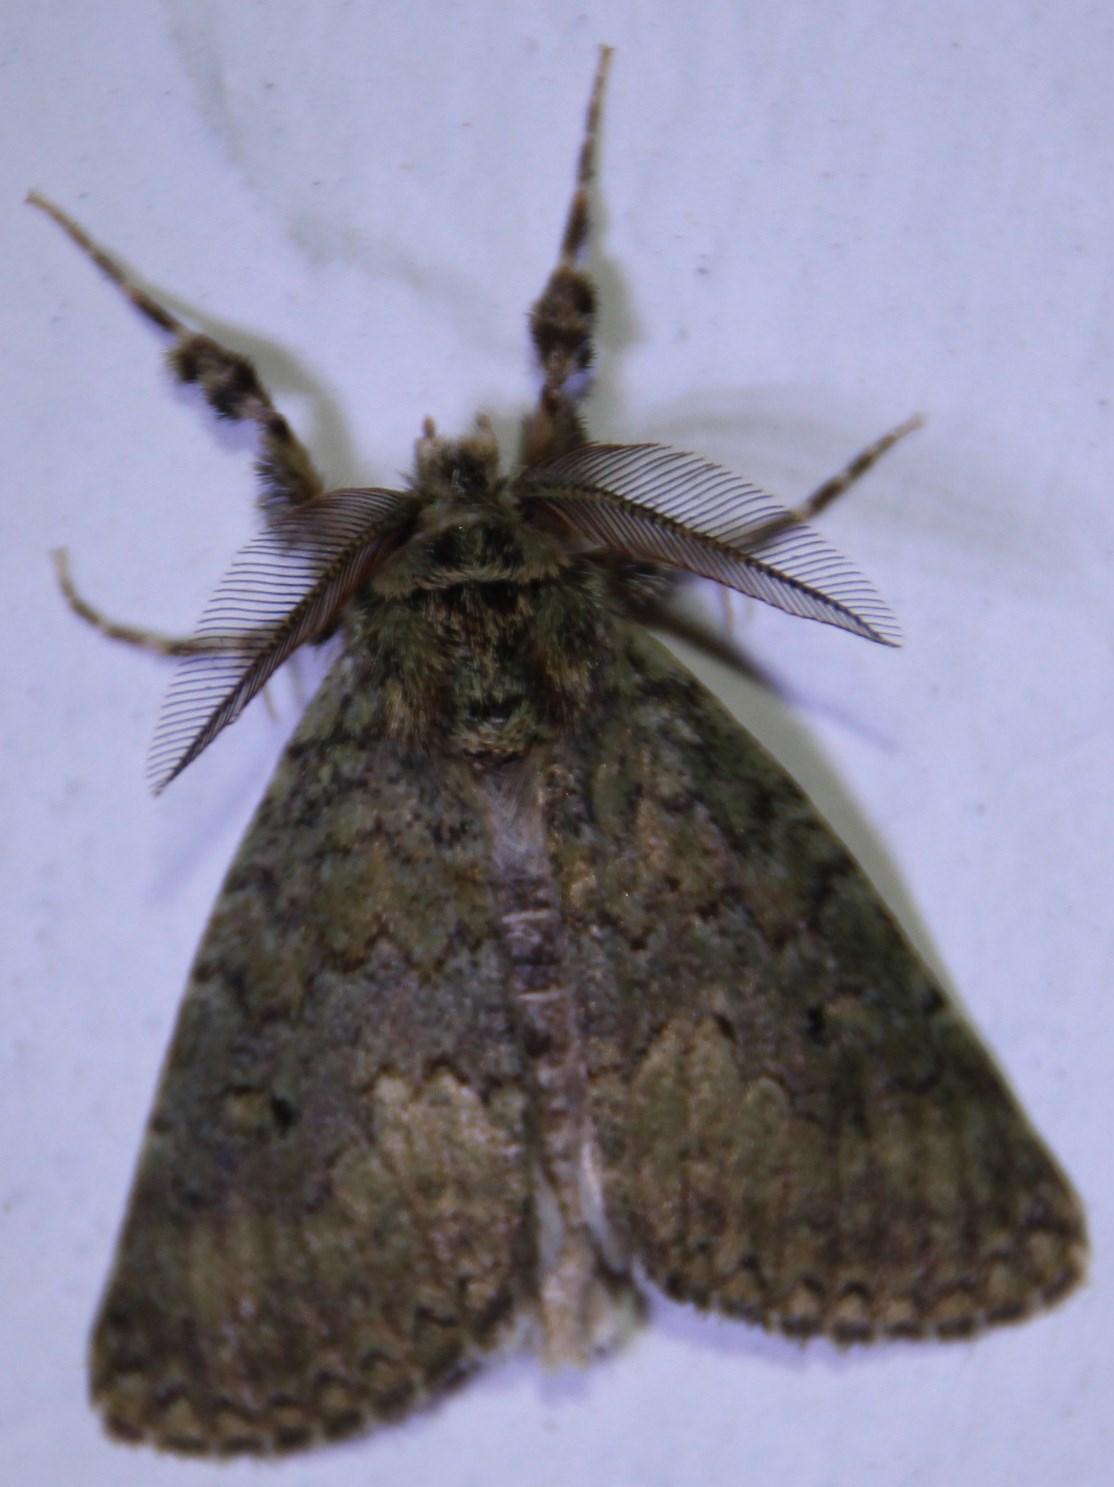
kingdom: Animalia
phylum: Arthropoda
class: Insecta
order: Lepidoptera
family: Erebidae
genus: Laelia
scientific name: Laelia fusca
